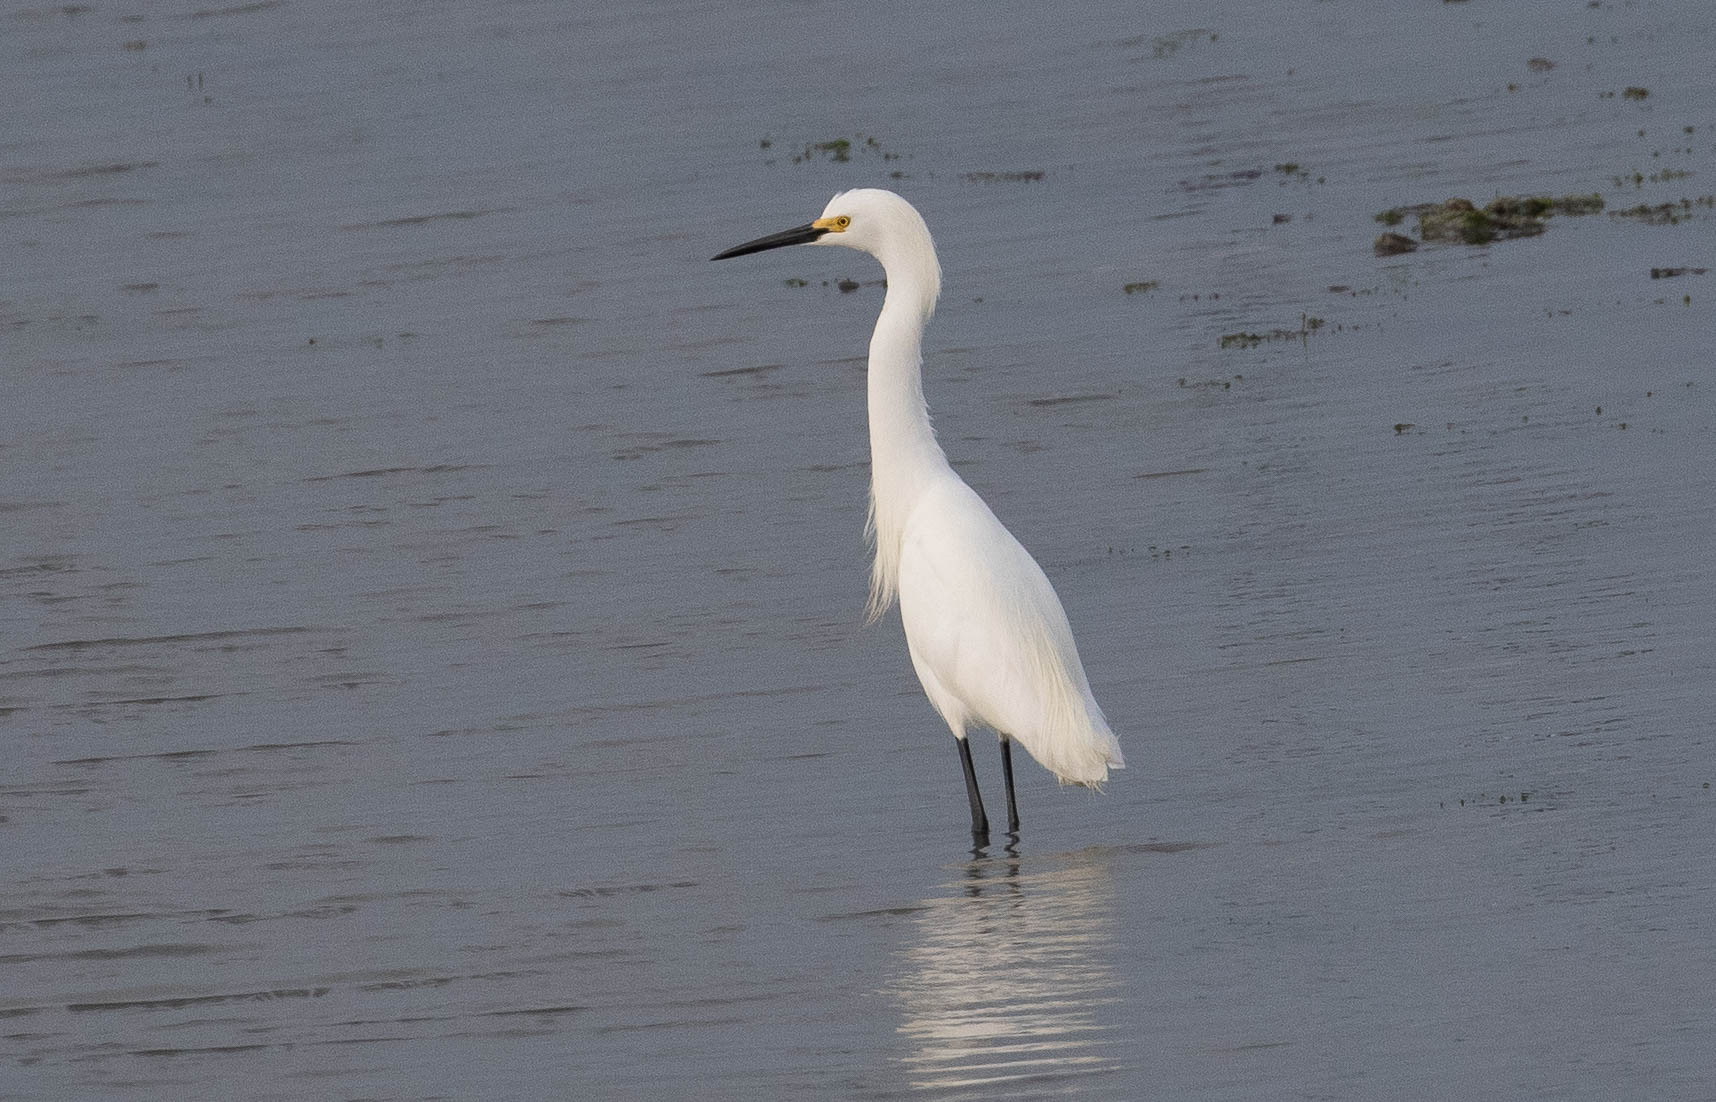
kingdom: Animalia
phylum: Chordata
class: Aves
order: Pelecaniformes
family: Ardeidae
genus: Egretta
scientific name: Egretta thula
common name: Snowy egret
